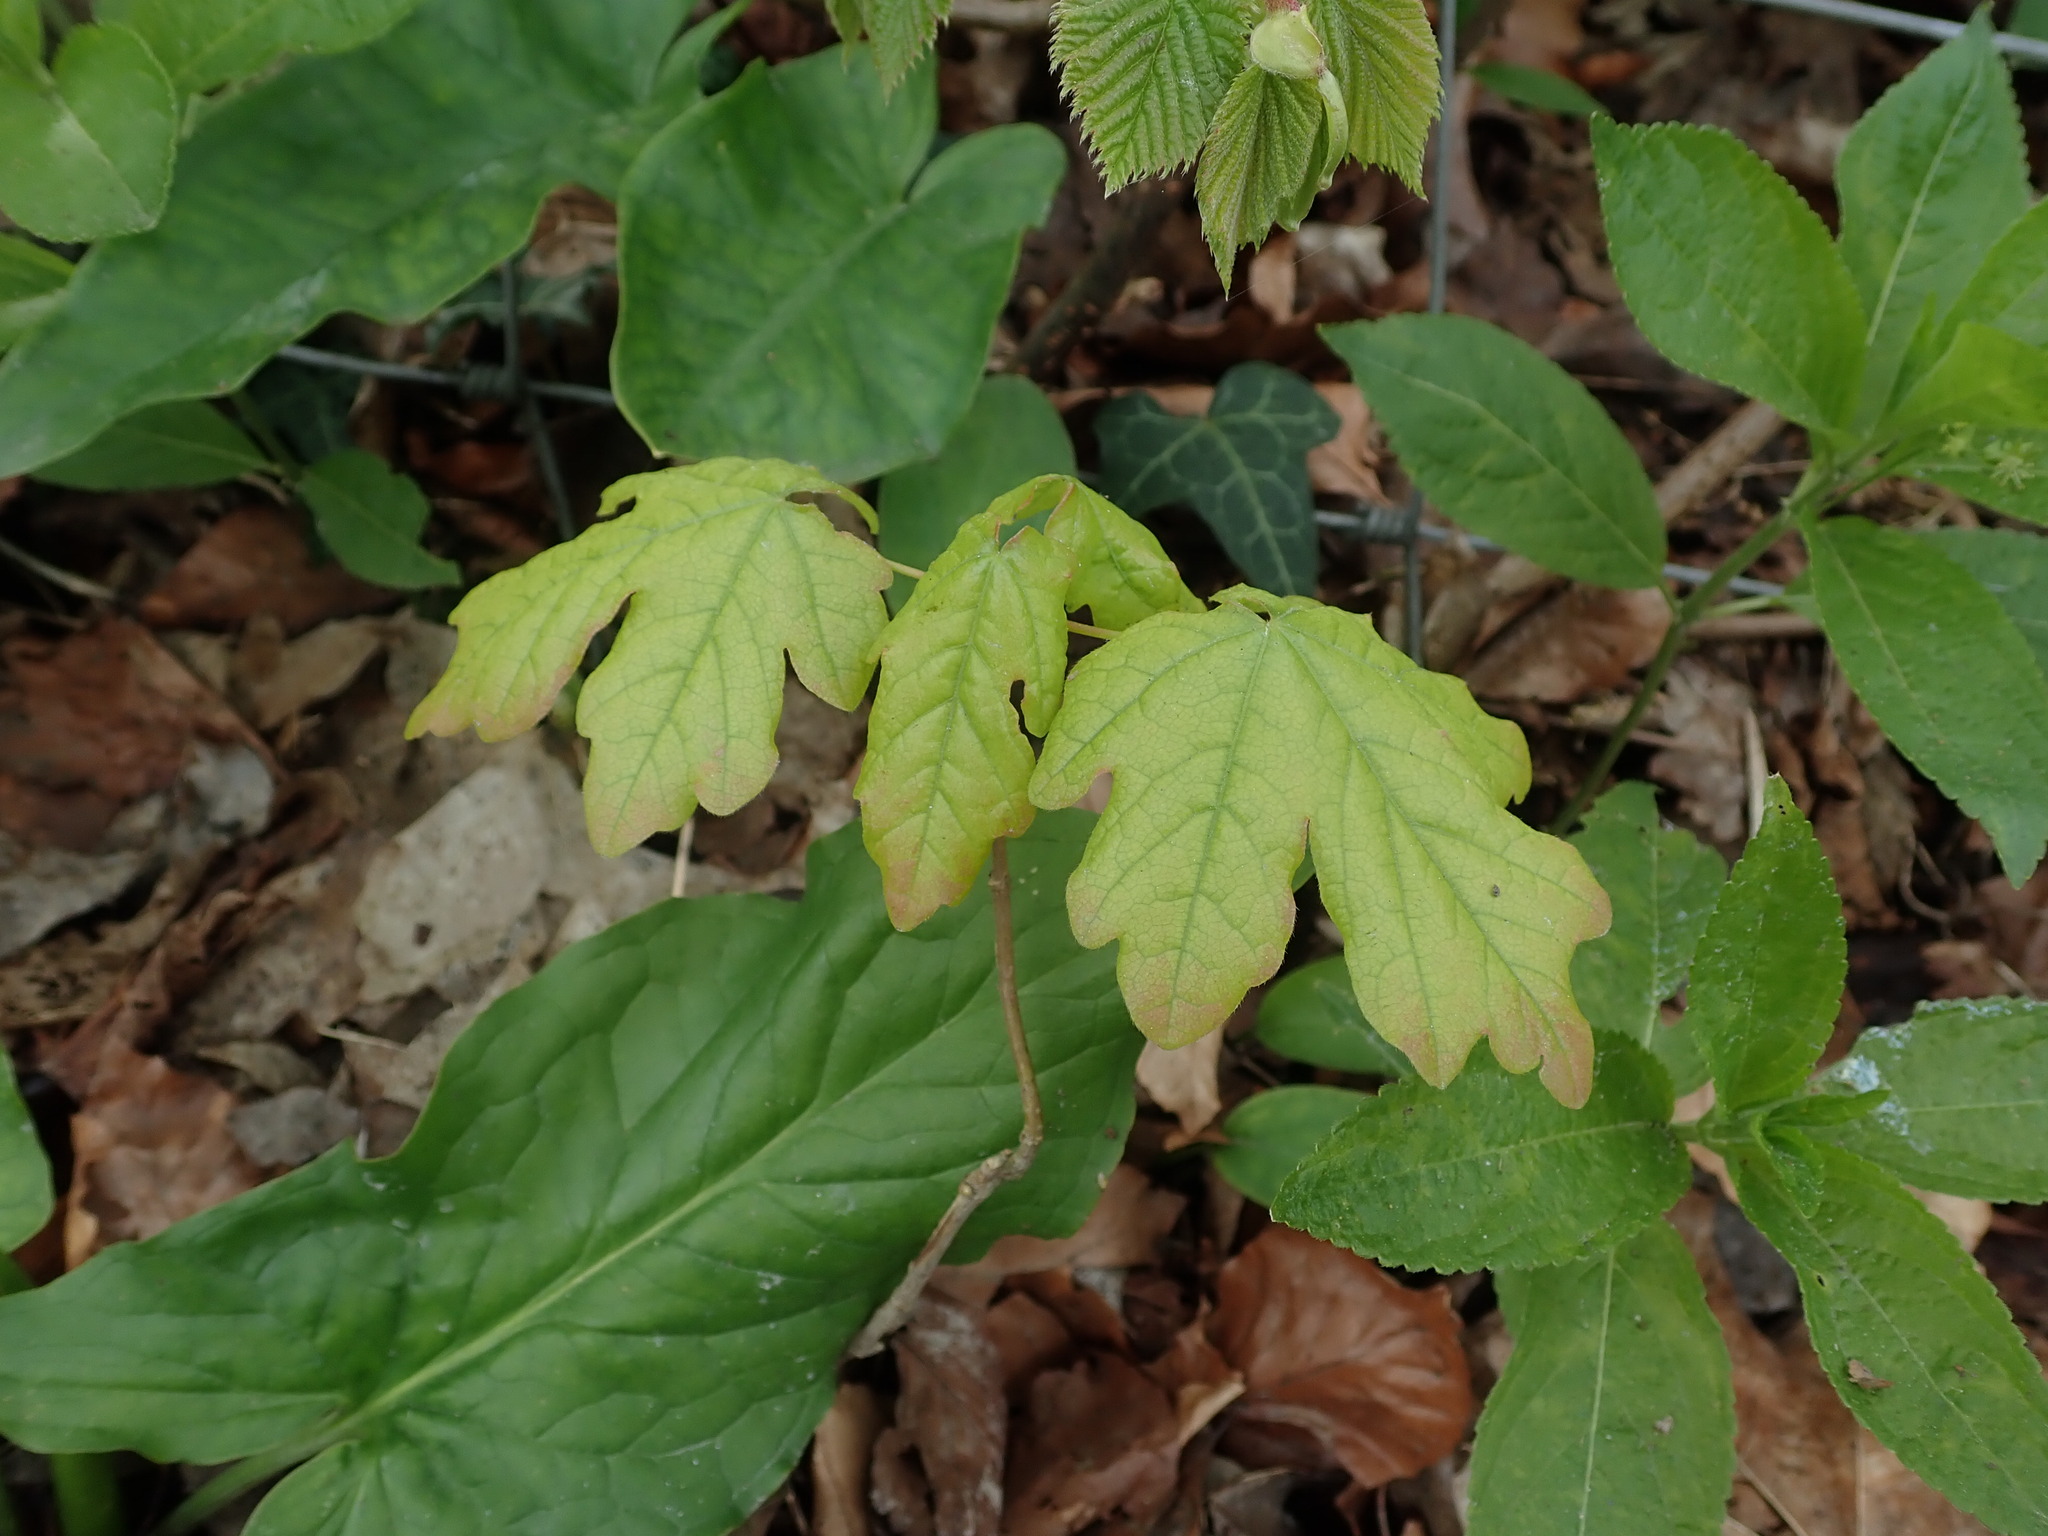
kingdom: Plantae
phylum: Tracheophyta
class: Magnoliopsida
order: Sapindales
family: Sapindaceae
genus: Acer
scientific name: Acer campestre
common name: Field maple
